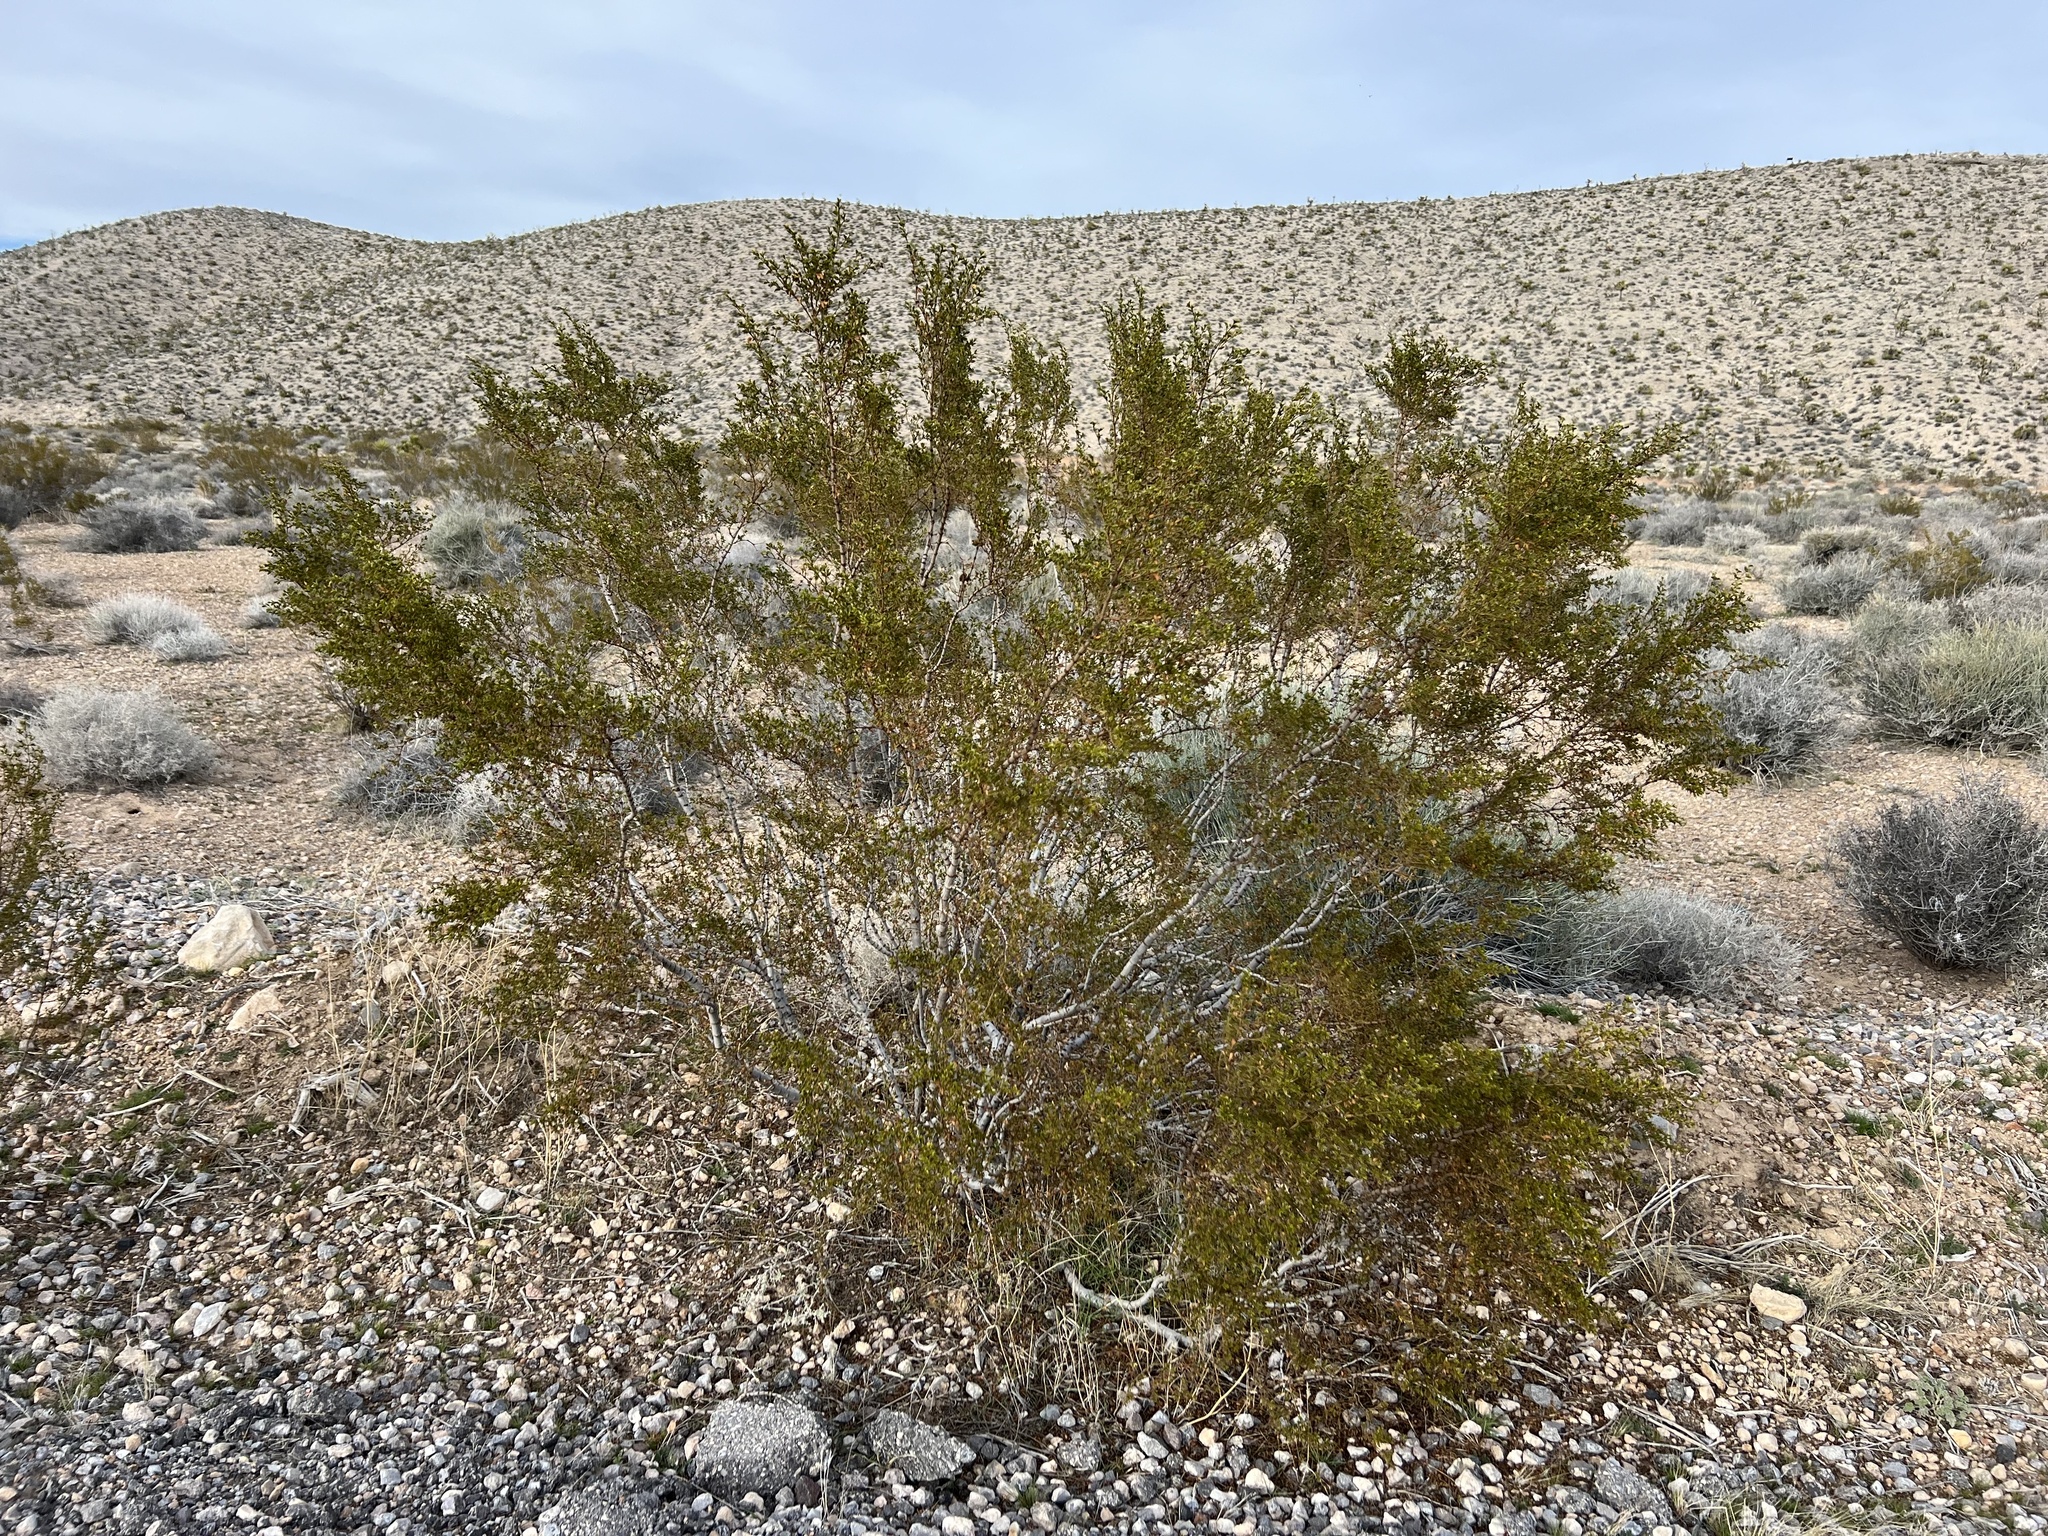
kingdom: Plantae
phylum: Tracheophyta
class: Magnoliopsida
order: Zygophyllales
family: Zygophyllaceae
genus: Larrea
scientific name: Larrea tridentata
